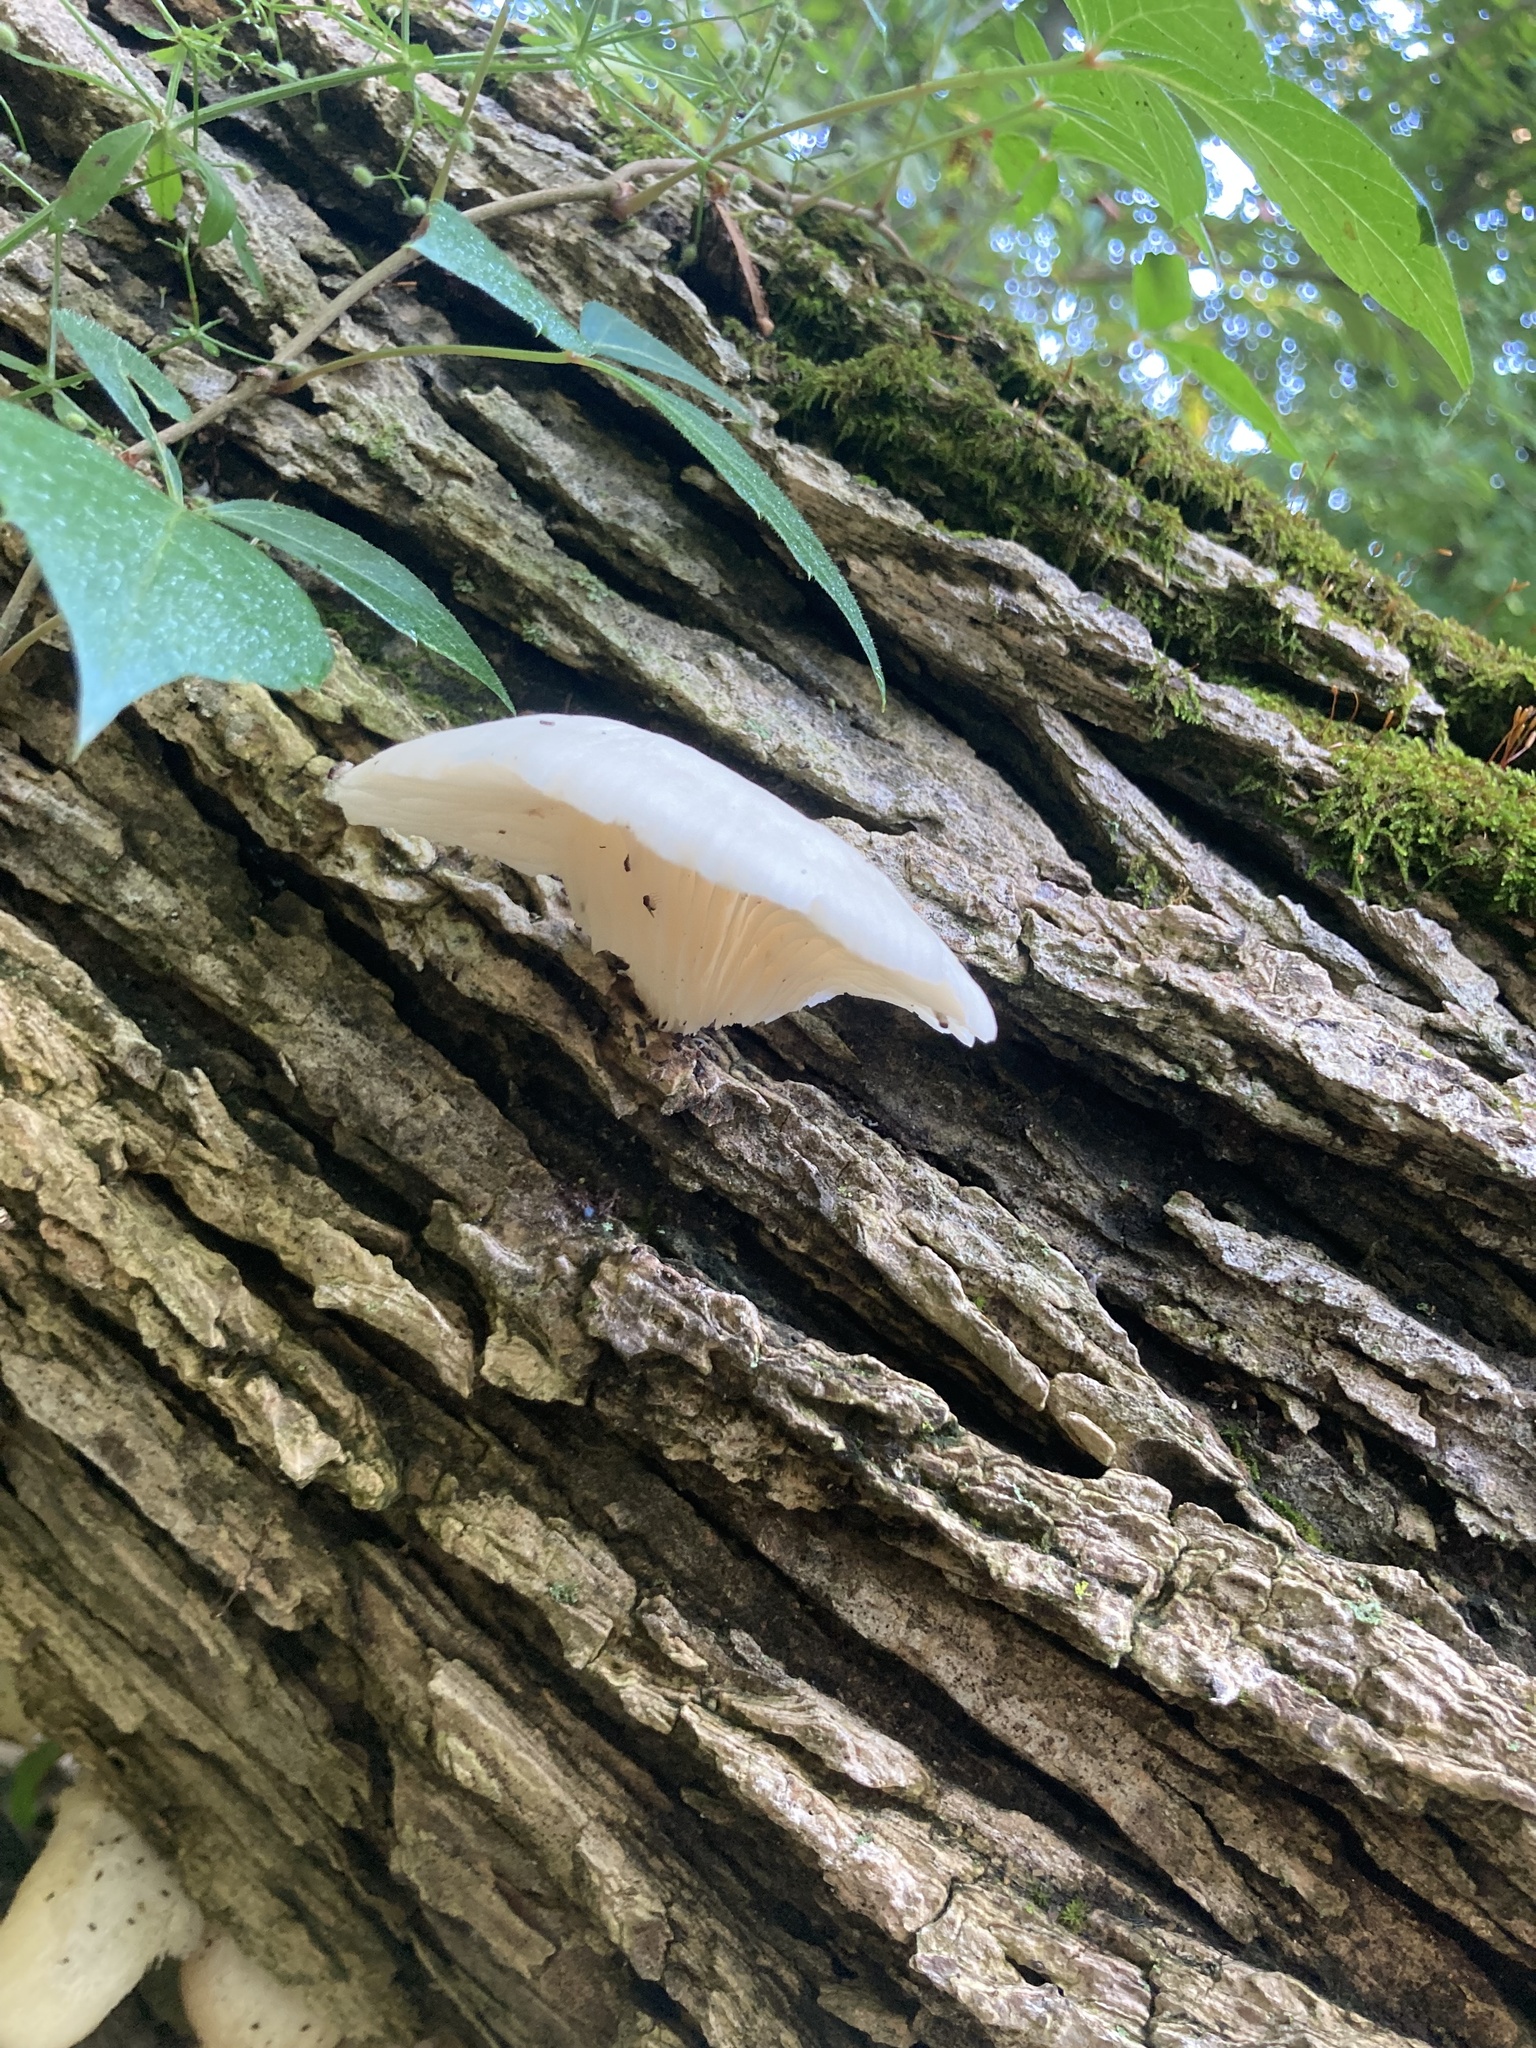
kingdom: Fungi
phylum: Basidiomycota
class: Agaricomycetes
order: Agaricales
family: Pleurotaceae
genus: Pleurotus
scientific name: Pleurotus pulmonarius
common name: Pale oyster
